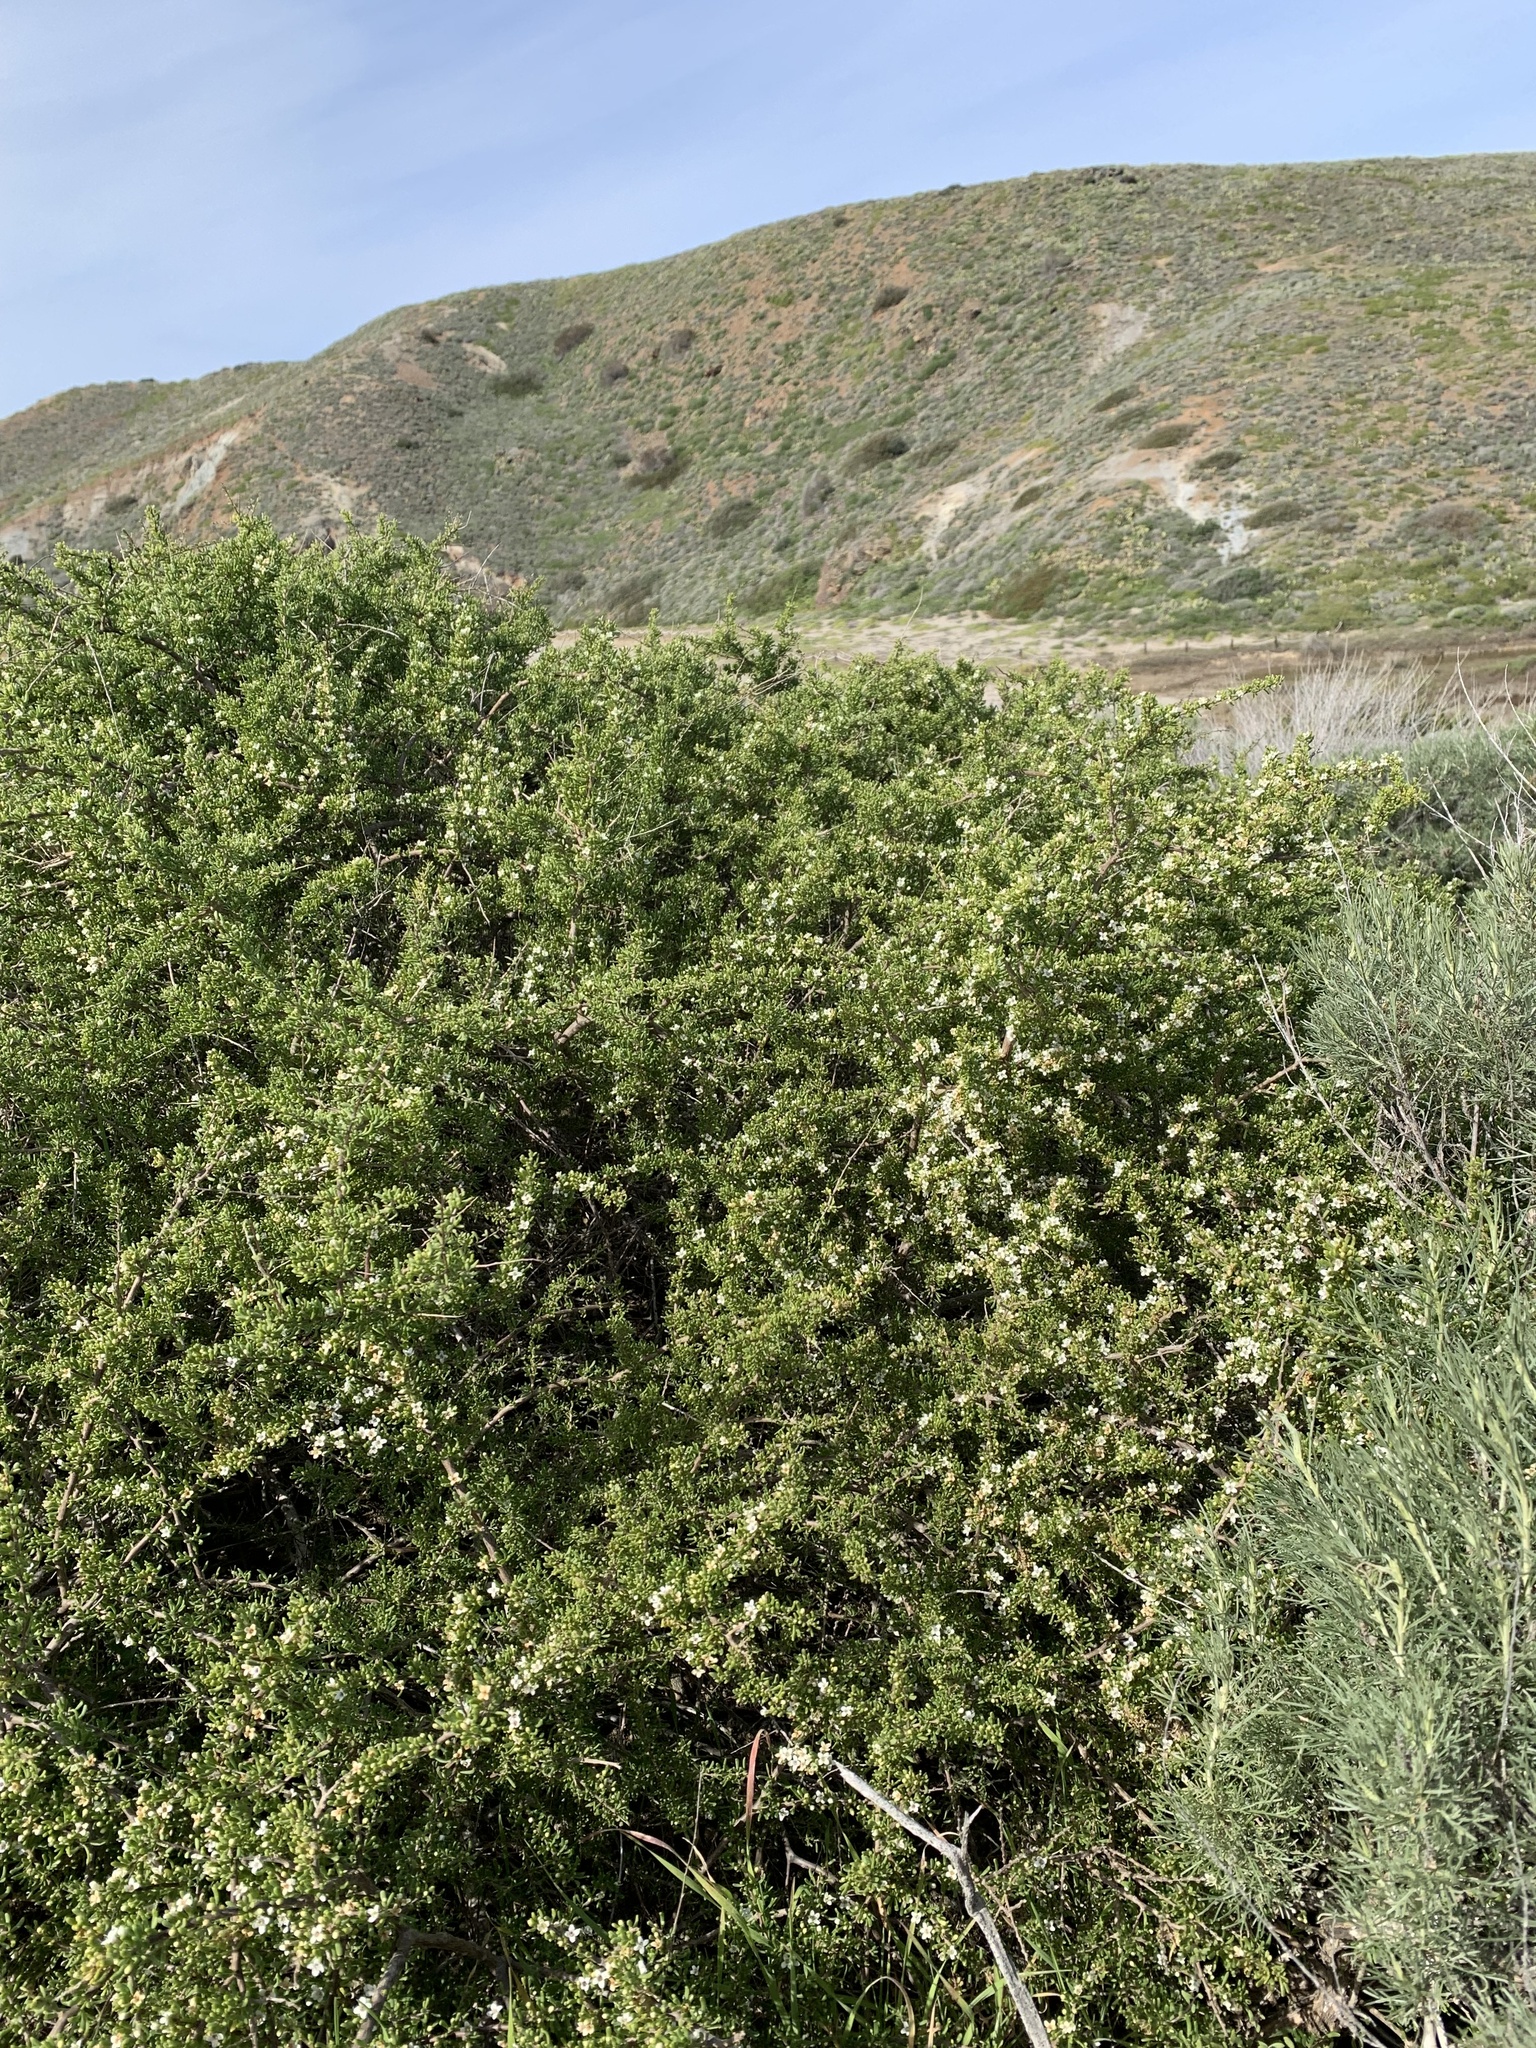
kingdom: Plantae
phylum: Tracheophyta
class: Magnoliopsida
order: Solanales
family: Solanaceae
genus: Lycium
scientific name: Lycium californicum
